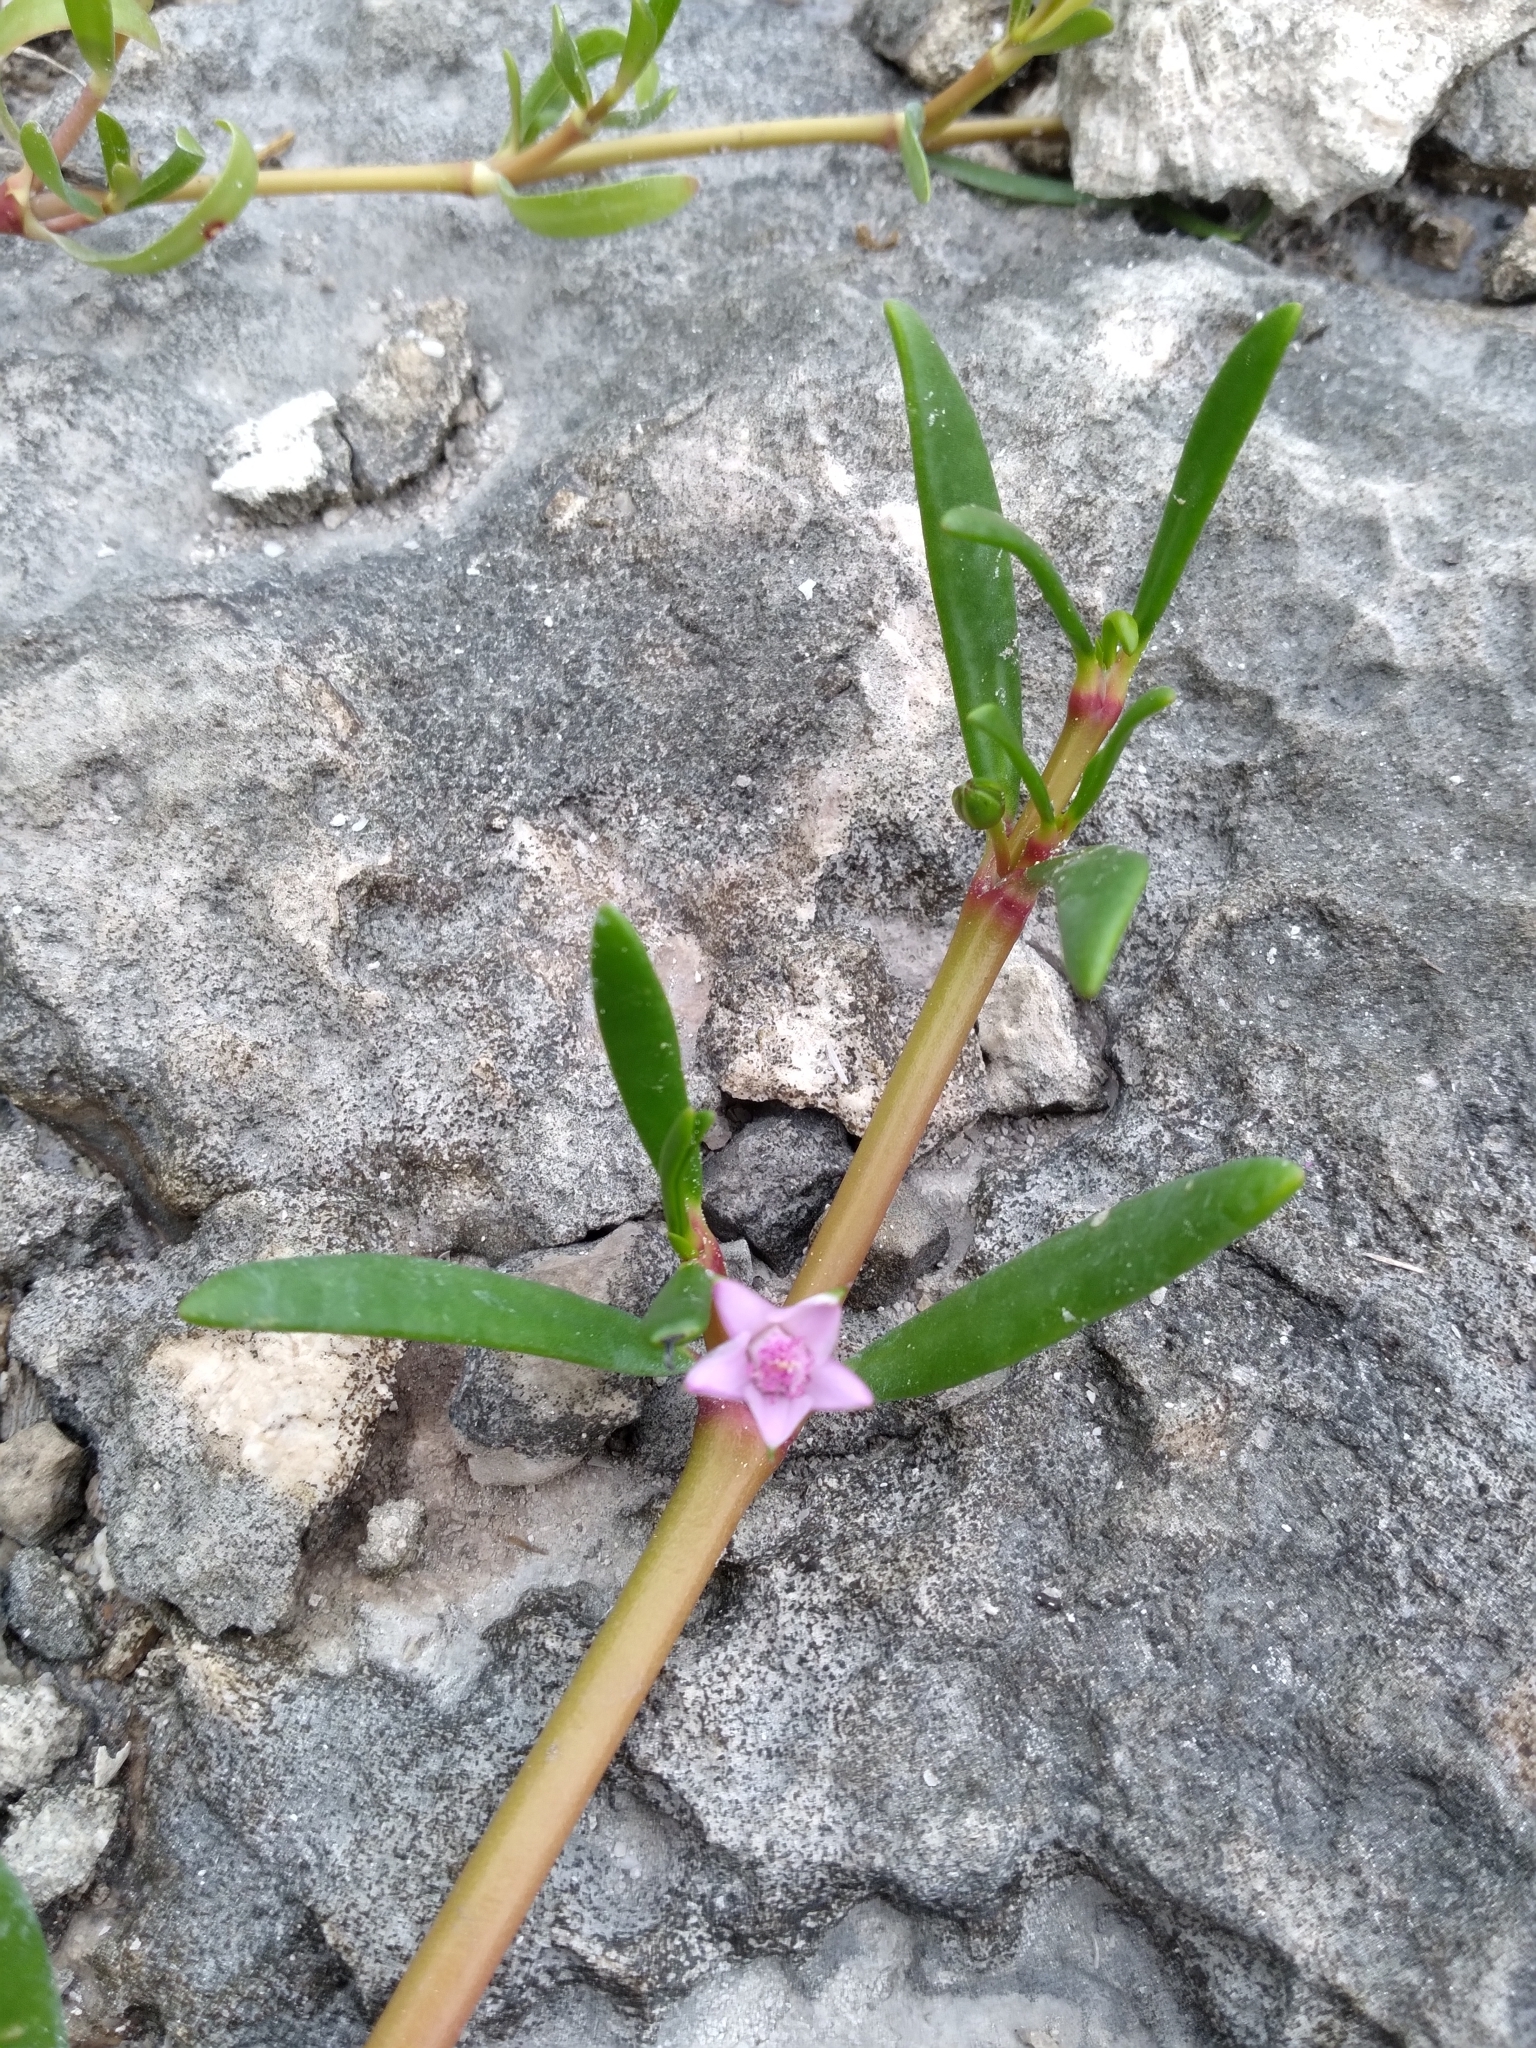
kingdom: Plantae
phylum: Tracheophyta
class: Magnoliopsida
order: Caryophyllales
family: Aizoaceae
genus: Sesuvium
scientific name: Sesuvium portulacastrum
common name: Sea-purslane
